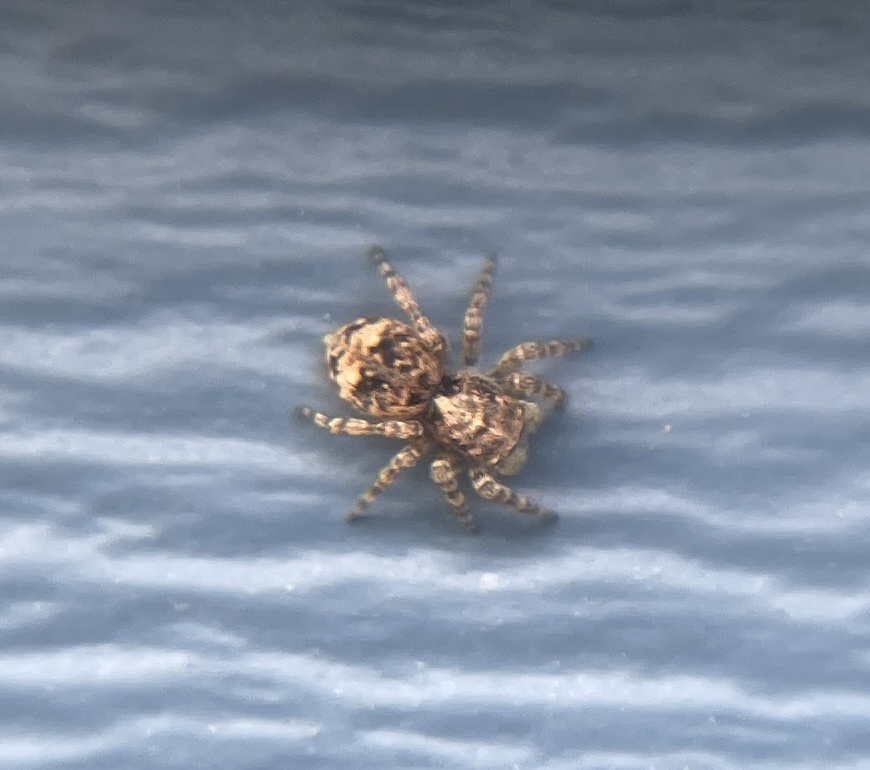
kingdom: Animalia
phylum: Arthropoda
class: Arachnida
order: Araneae
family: Salticidae
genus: Attulus
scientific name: Attulus fasciger
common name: Asiatic wall jumping spider
